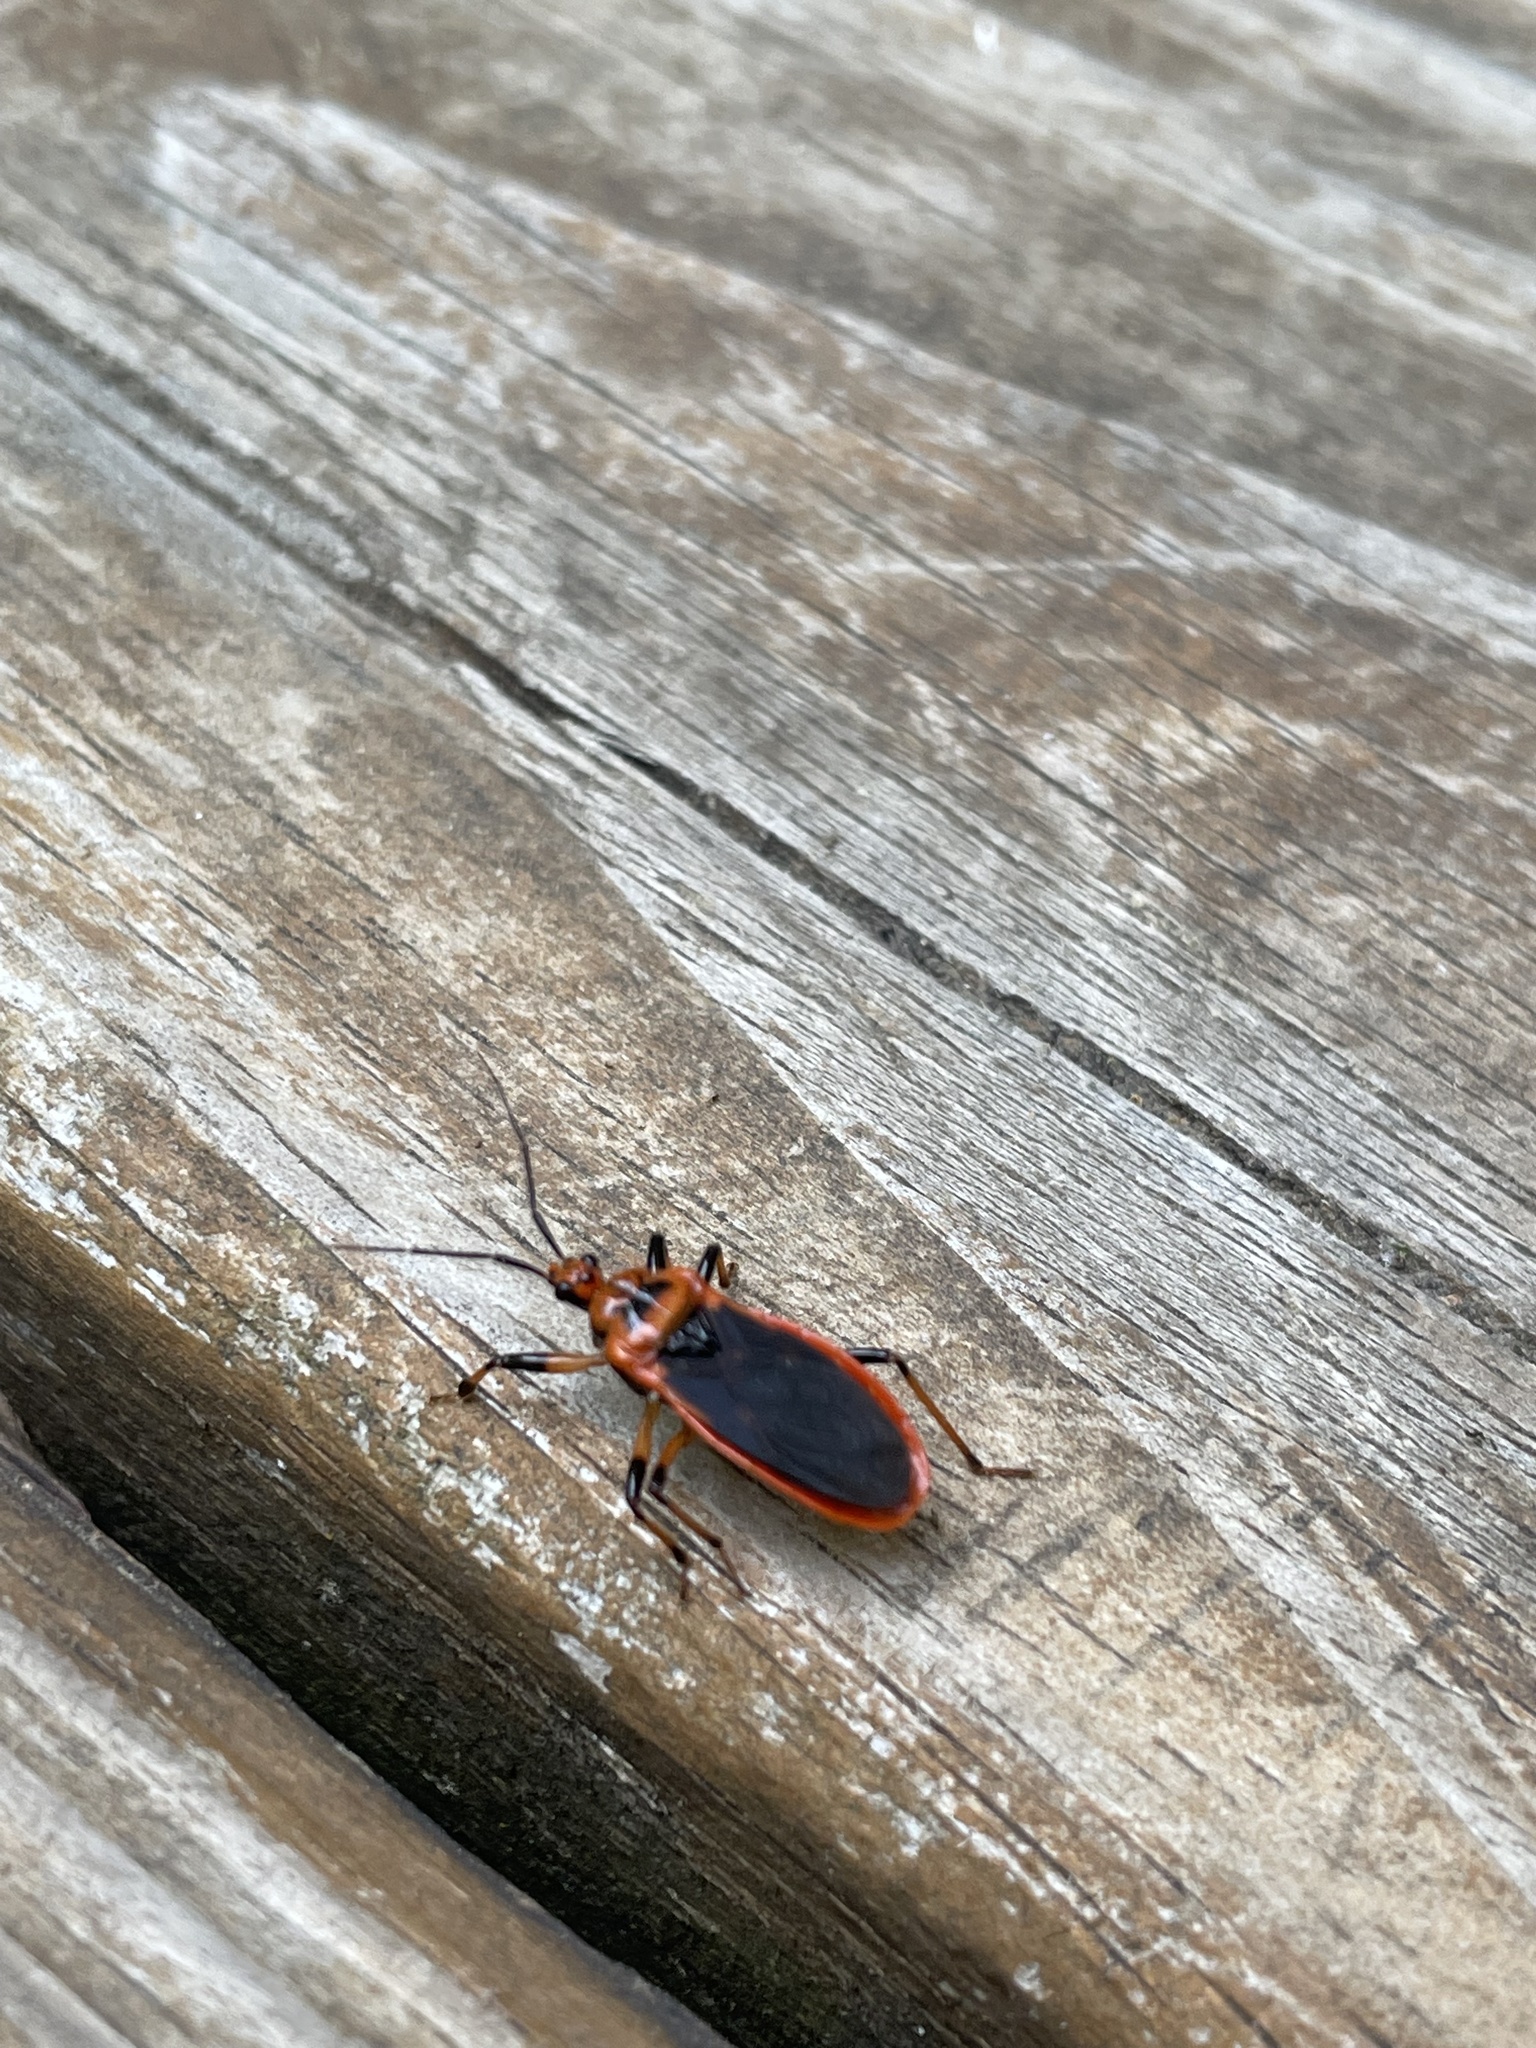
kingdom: Animalia
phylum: Arthropoda
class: Insecta
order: Hemiptera
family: Reduviidae
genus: Rhiginia
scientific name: Rhiginia cruciata
